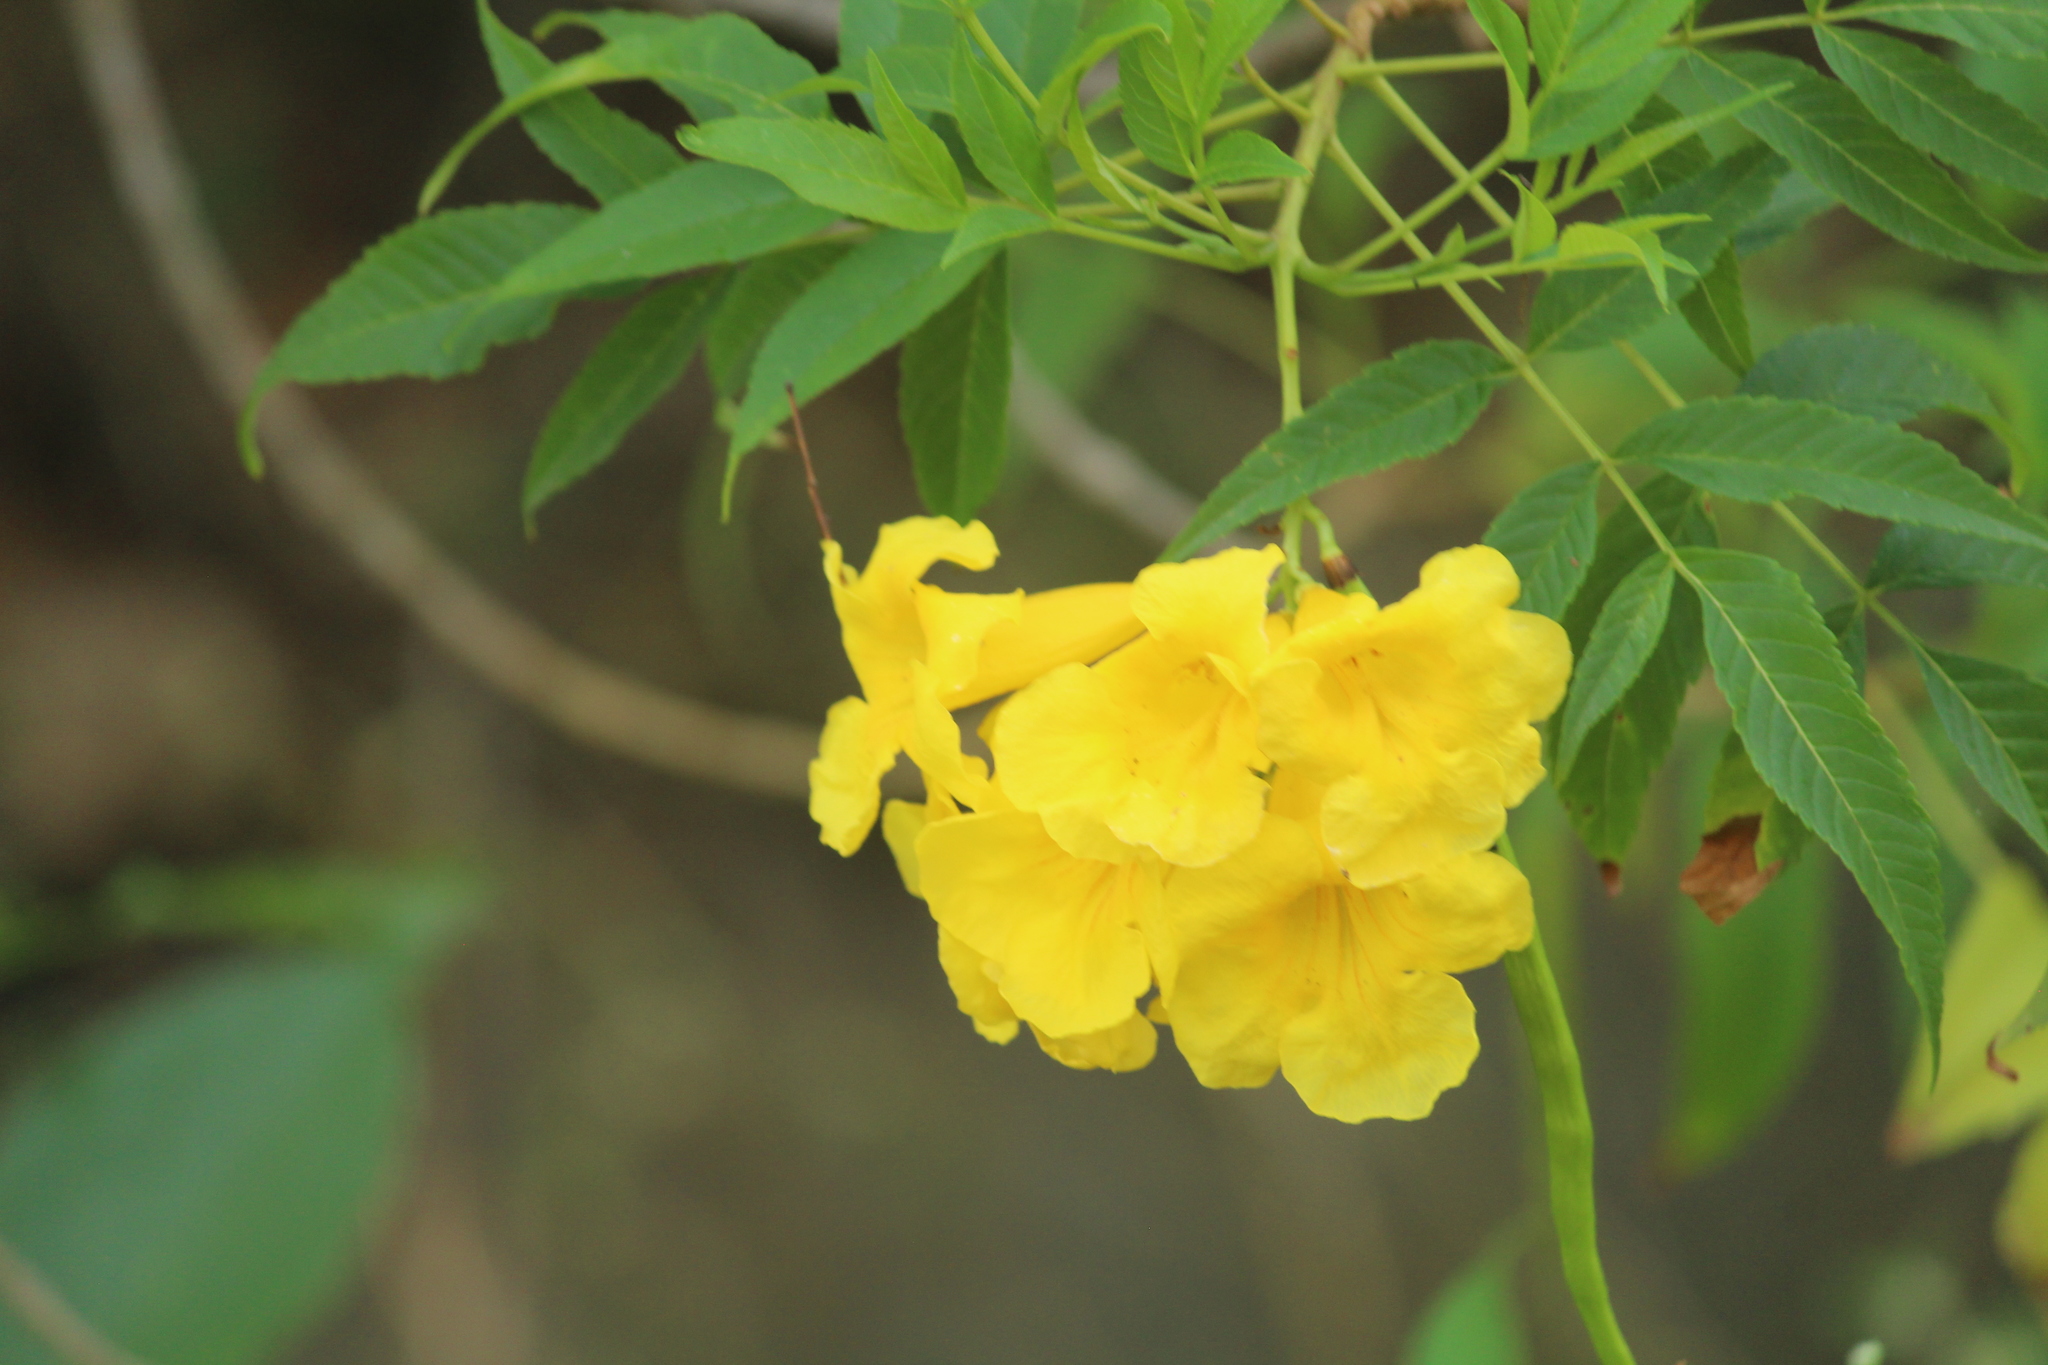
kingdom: Plantae
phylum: Tracheophyta
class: Magnoliopsida
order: Lamiales
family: Bignoniaceae
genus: Tecoma
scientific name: Tecoma stans
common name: Yellow trumpetbush
